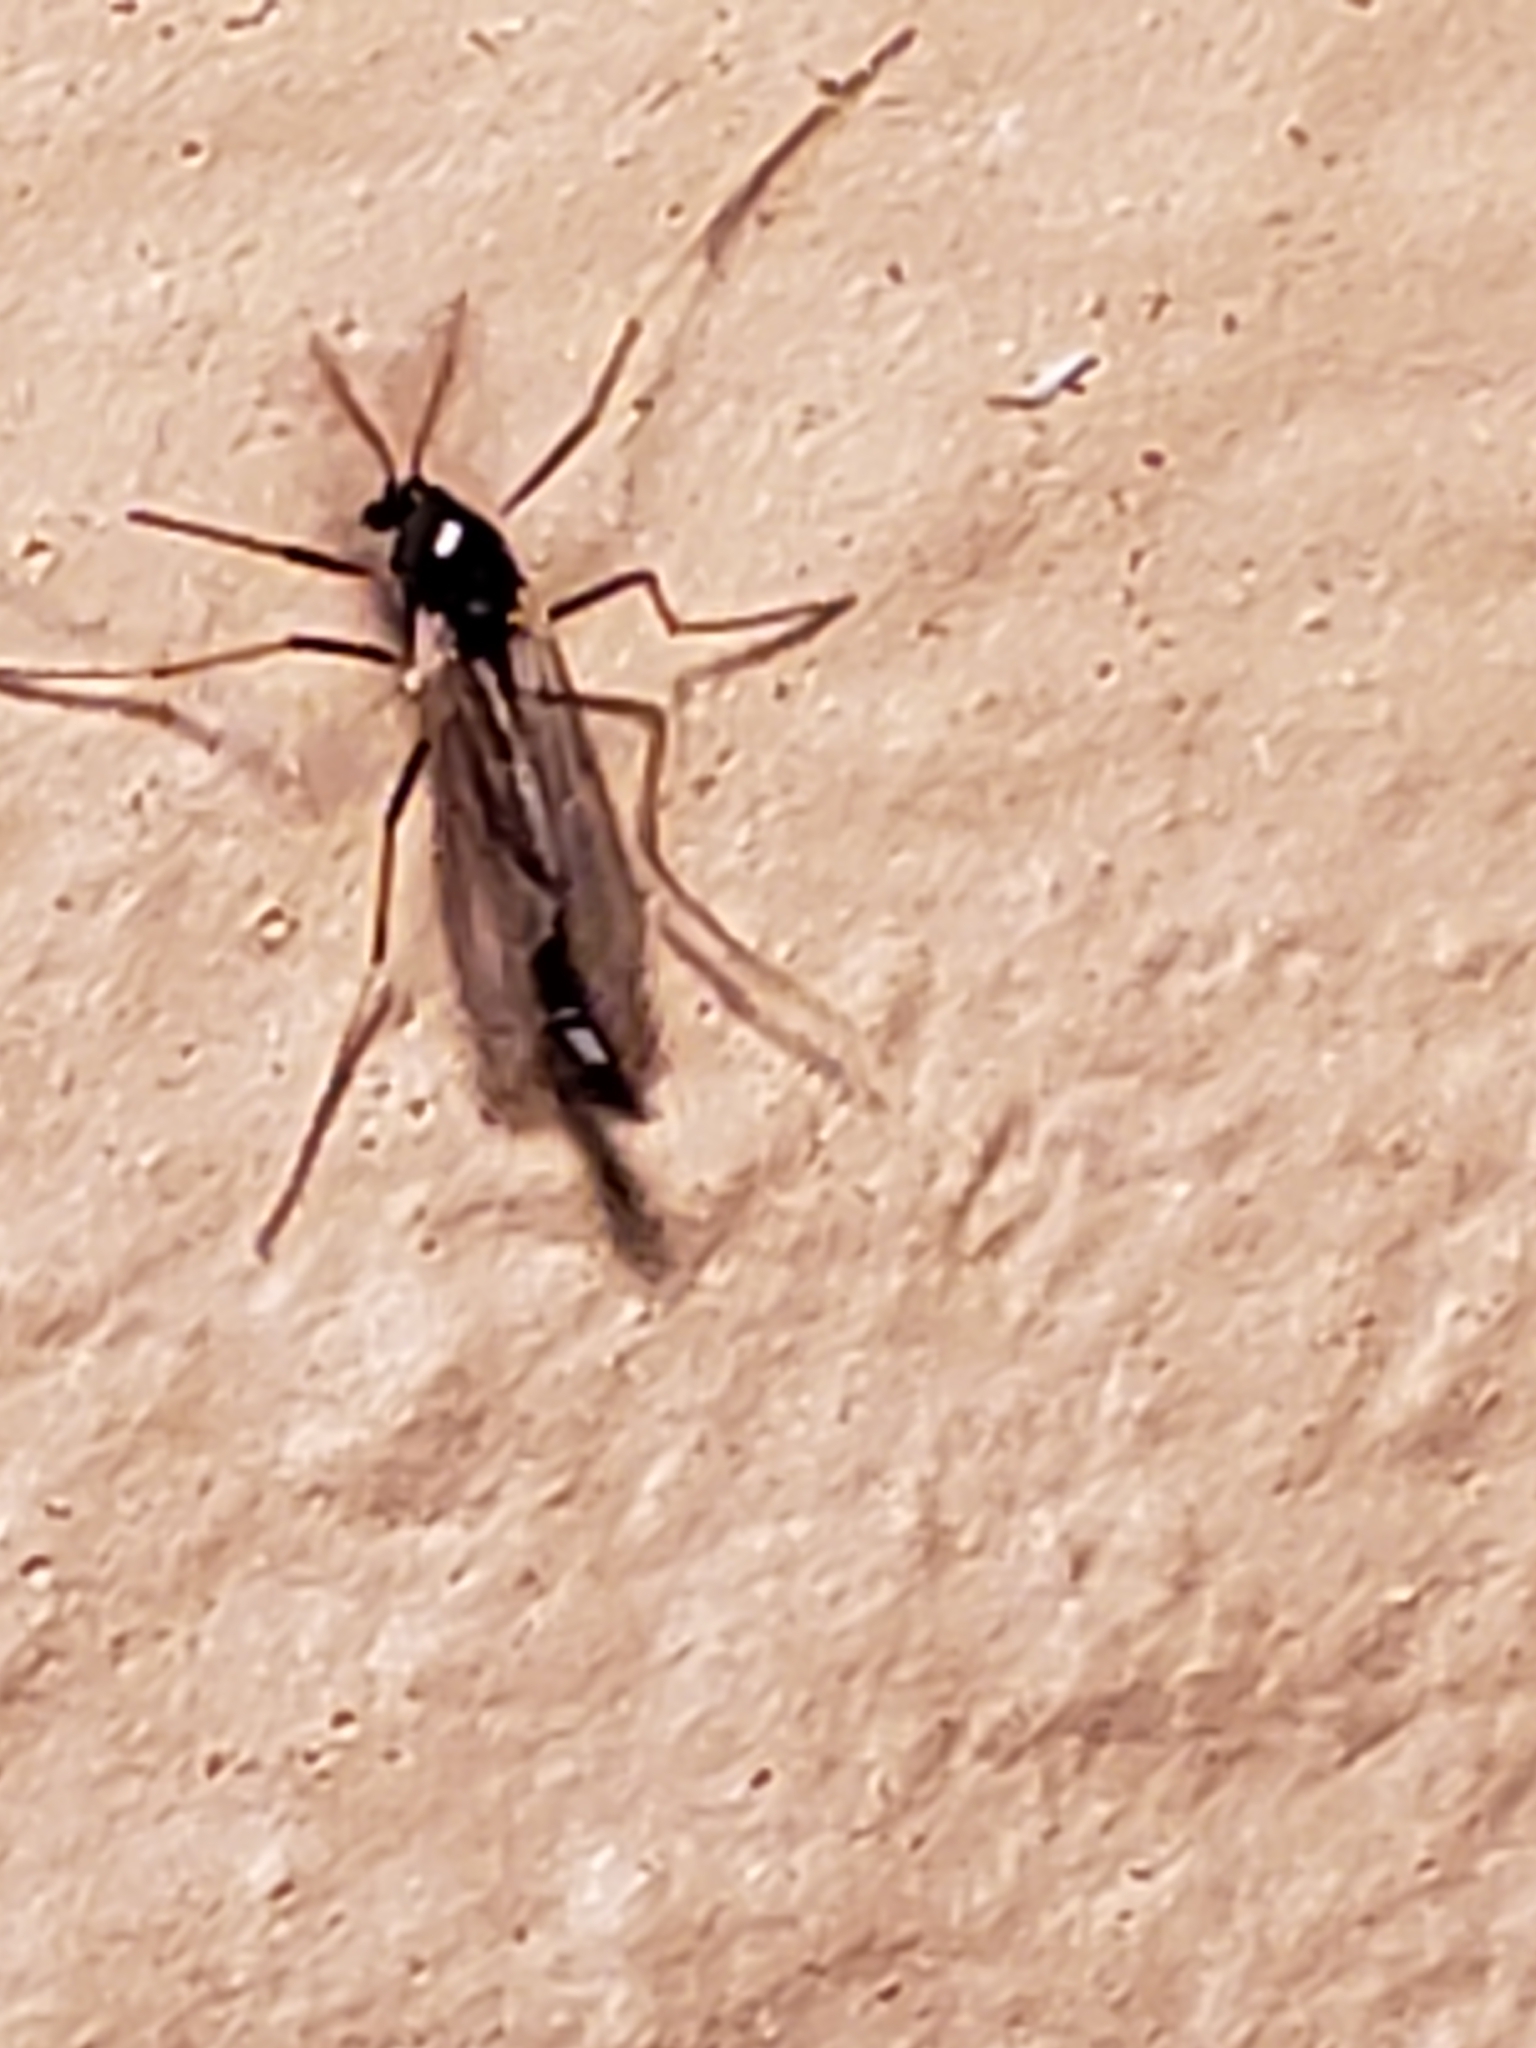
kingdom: Animalia
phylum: Arthropoda
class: Insecta
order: Diptera
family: Chironomidae
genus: Paratendipes
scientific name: Paratendipes albimanus
